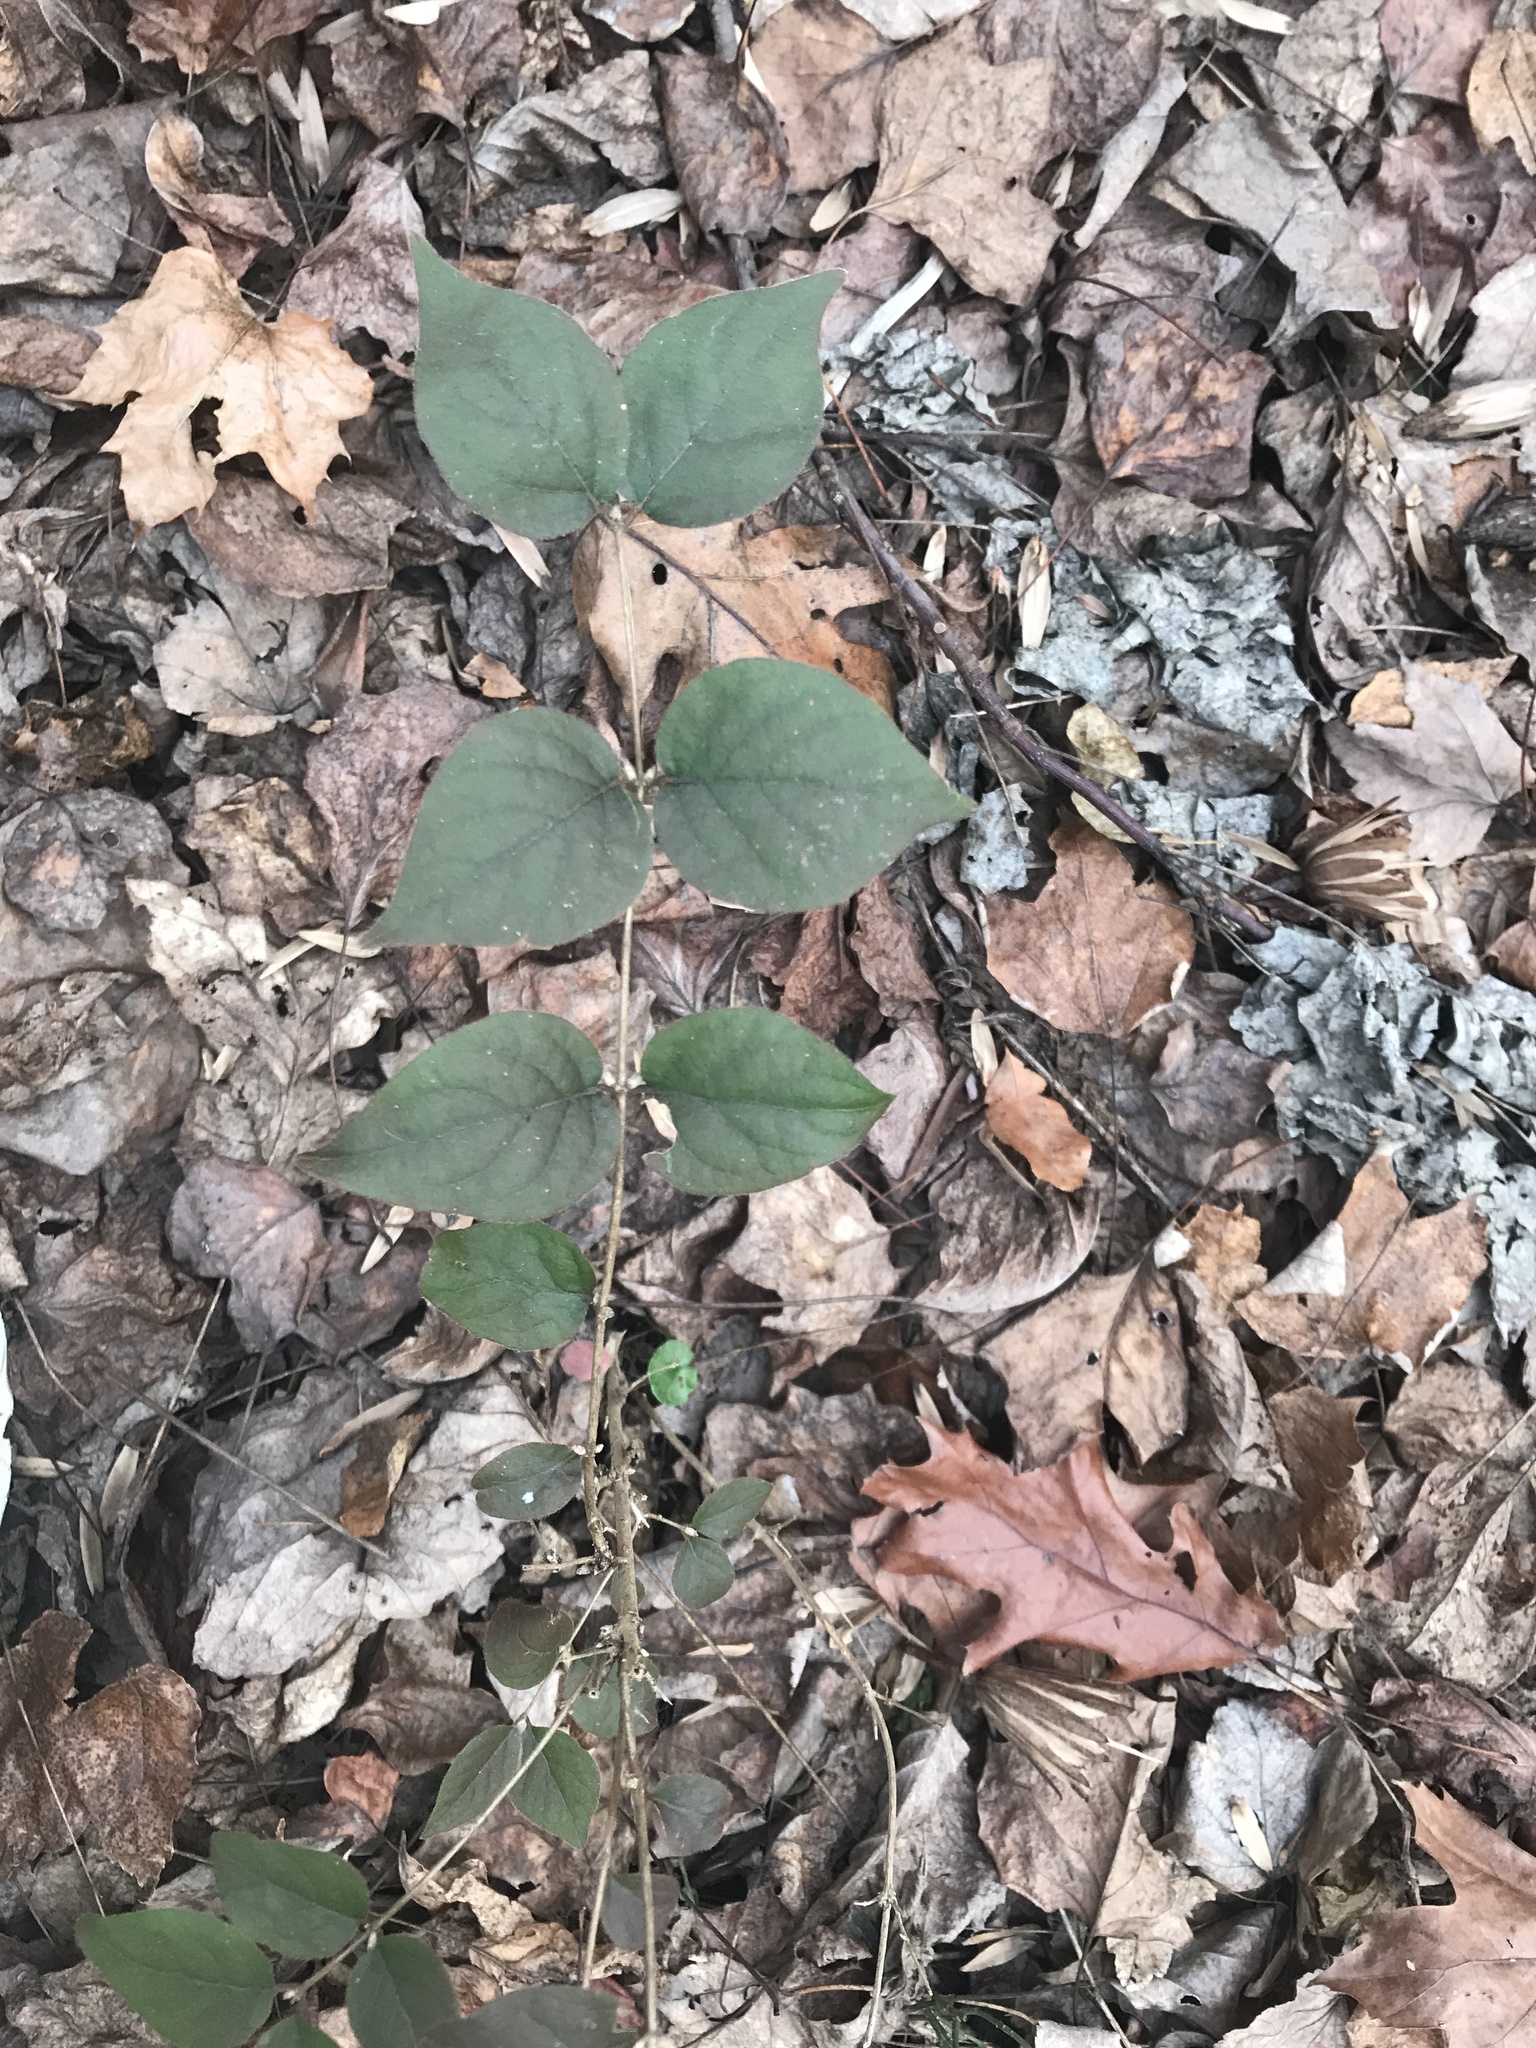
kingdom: Plantae
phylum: Tracheophyta
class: Magnoliopsida
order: Dipsacales
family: Caprifoliaceae
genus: Lonicera
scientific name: Lonicera maackii
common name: Amur honeysuckle
